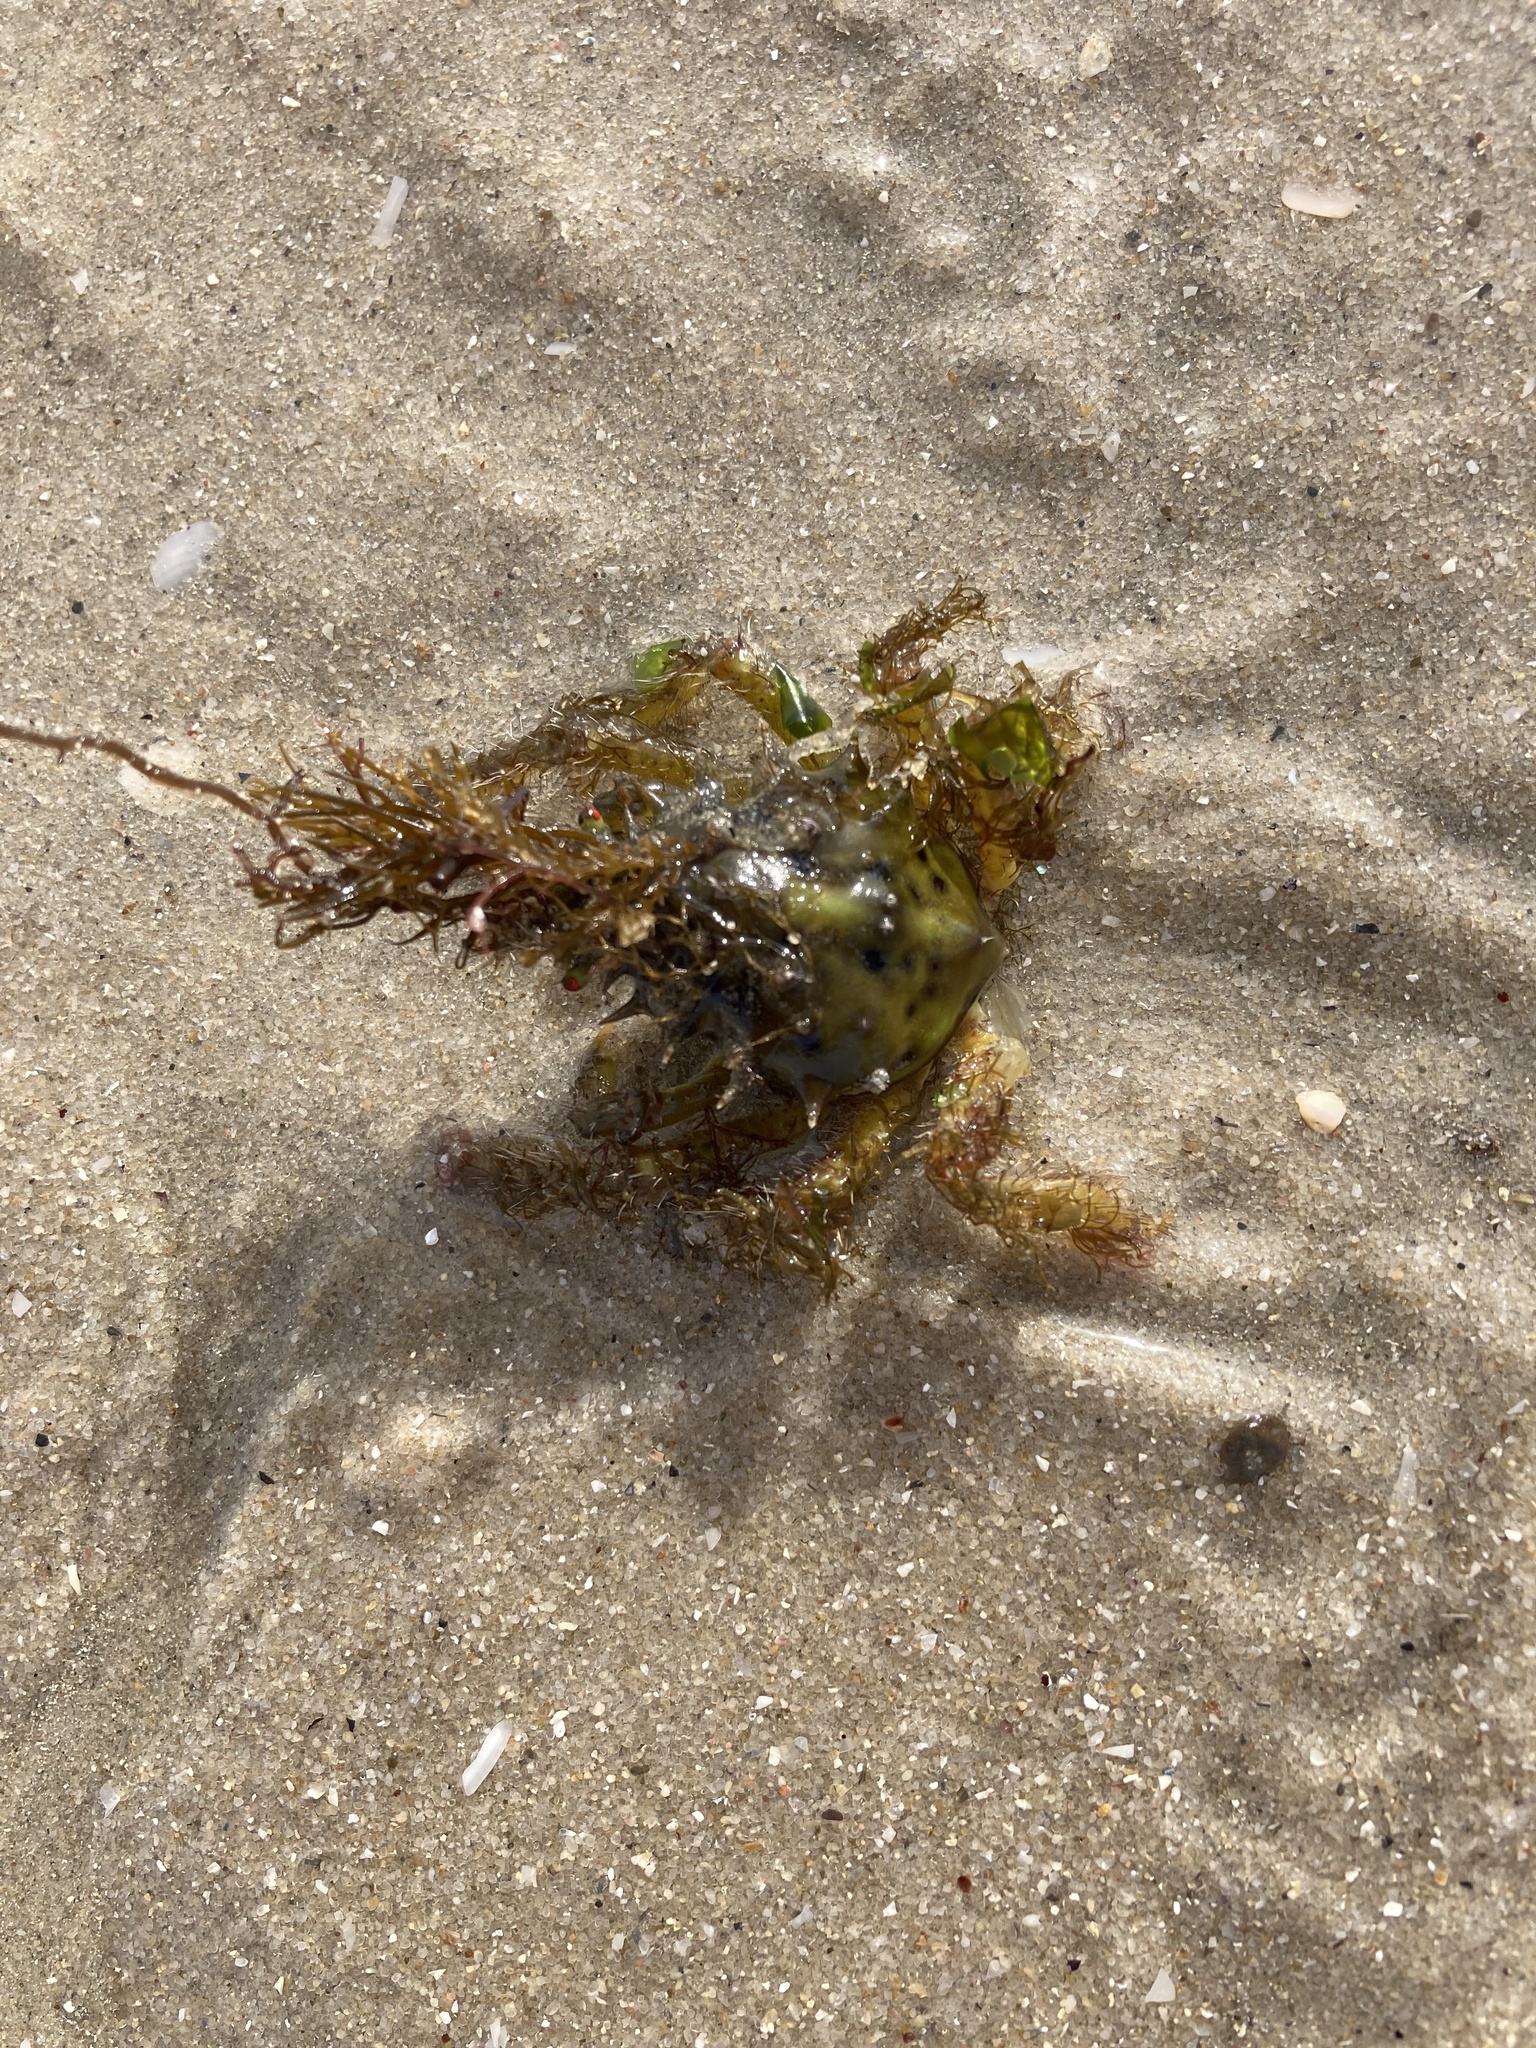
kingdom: Animalia
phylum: Arthropoda
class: Malacostraca
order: Decapoda
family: Majidae
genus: Naxia
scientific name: Naxia aurita
